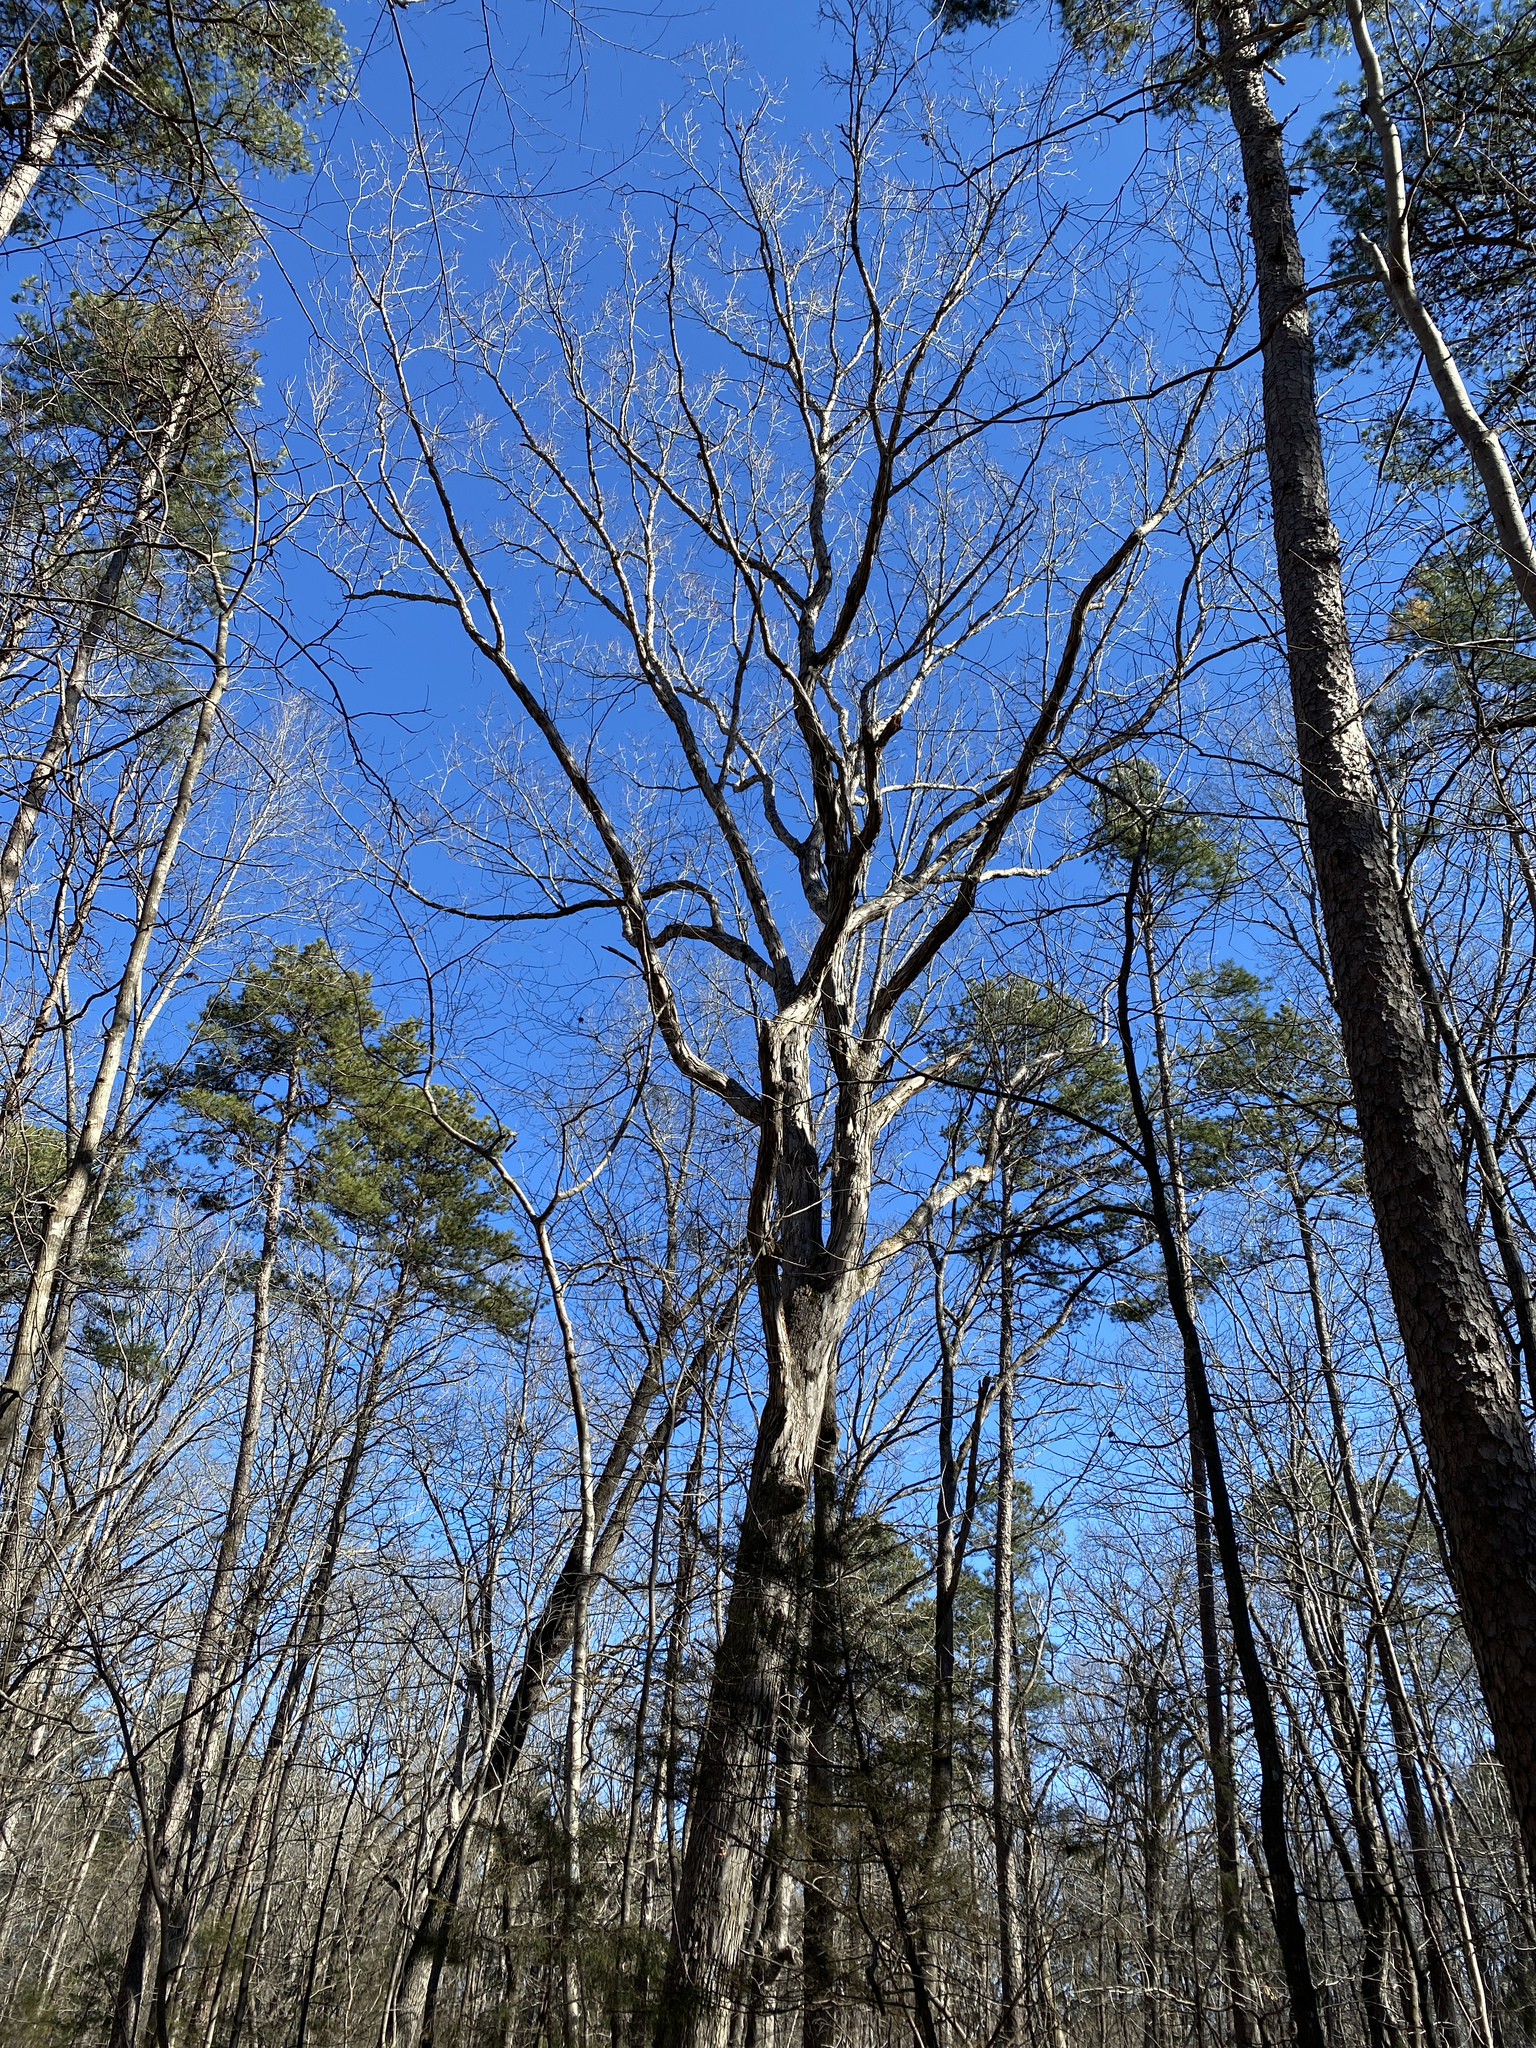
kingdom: Plantae
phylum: Tracheophyta
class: Magnoliopsida
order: Fagales
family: Fagaceae
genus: Quercus
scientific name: Quercus alba
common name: White oak
